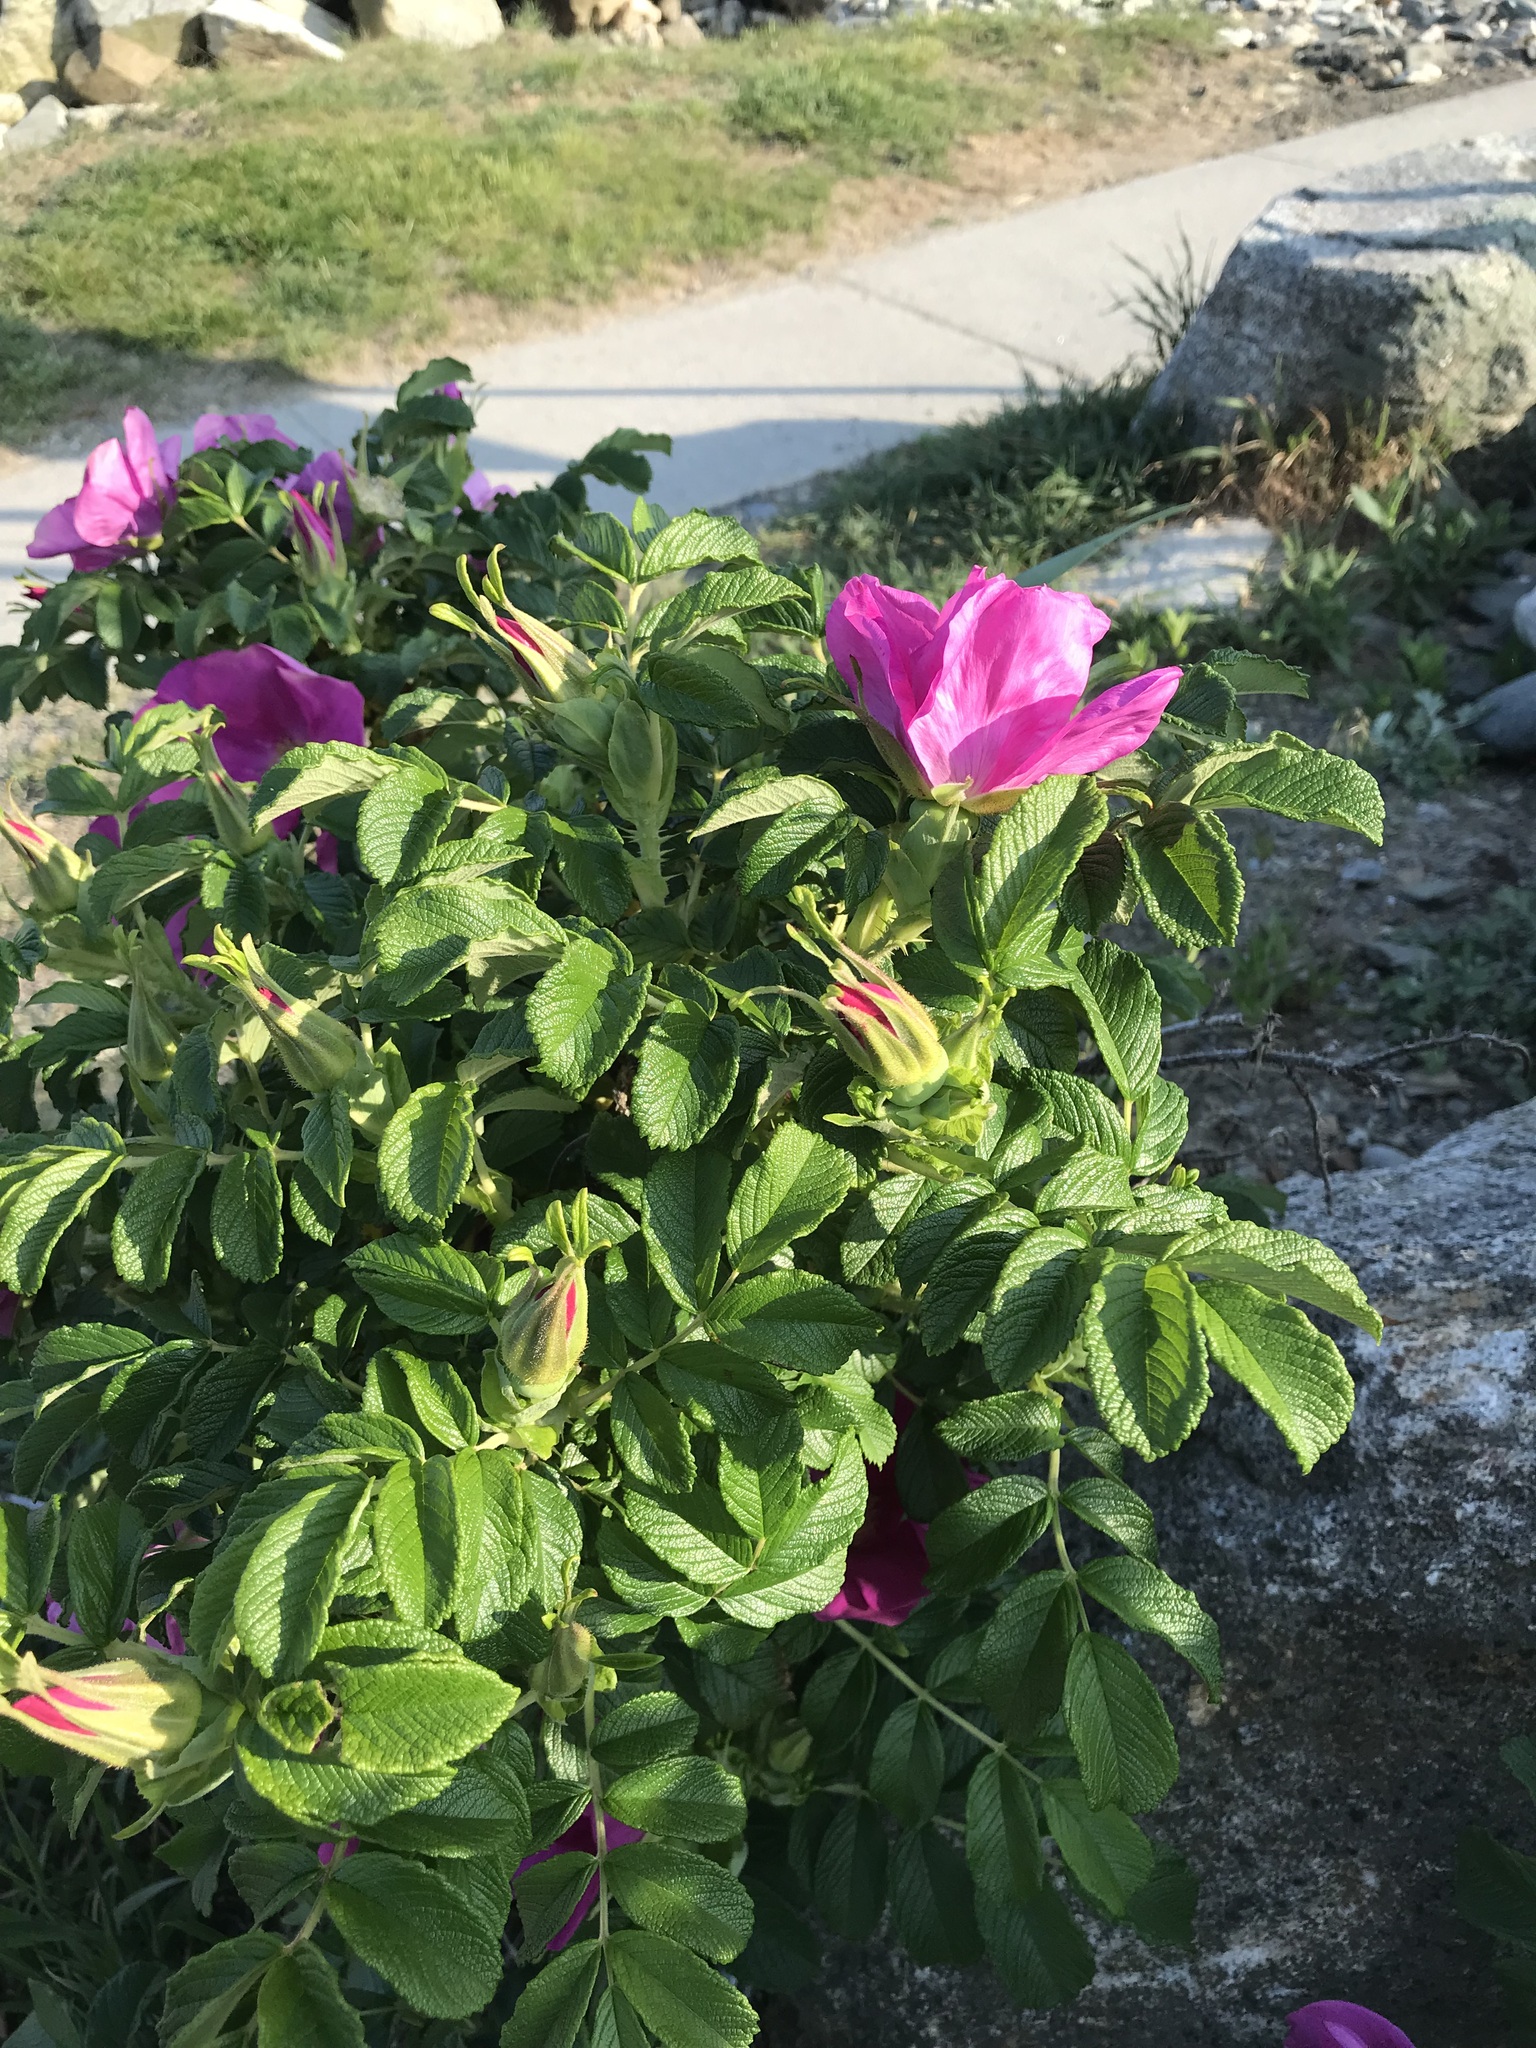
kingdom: Plantae
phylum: Tracheophyta
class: Magnoliopsida
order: Rosales
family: Rosaceae
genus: Rosa
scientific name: Rosa rugosa
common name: Japanese rose
